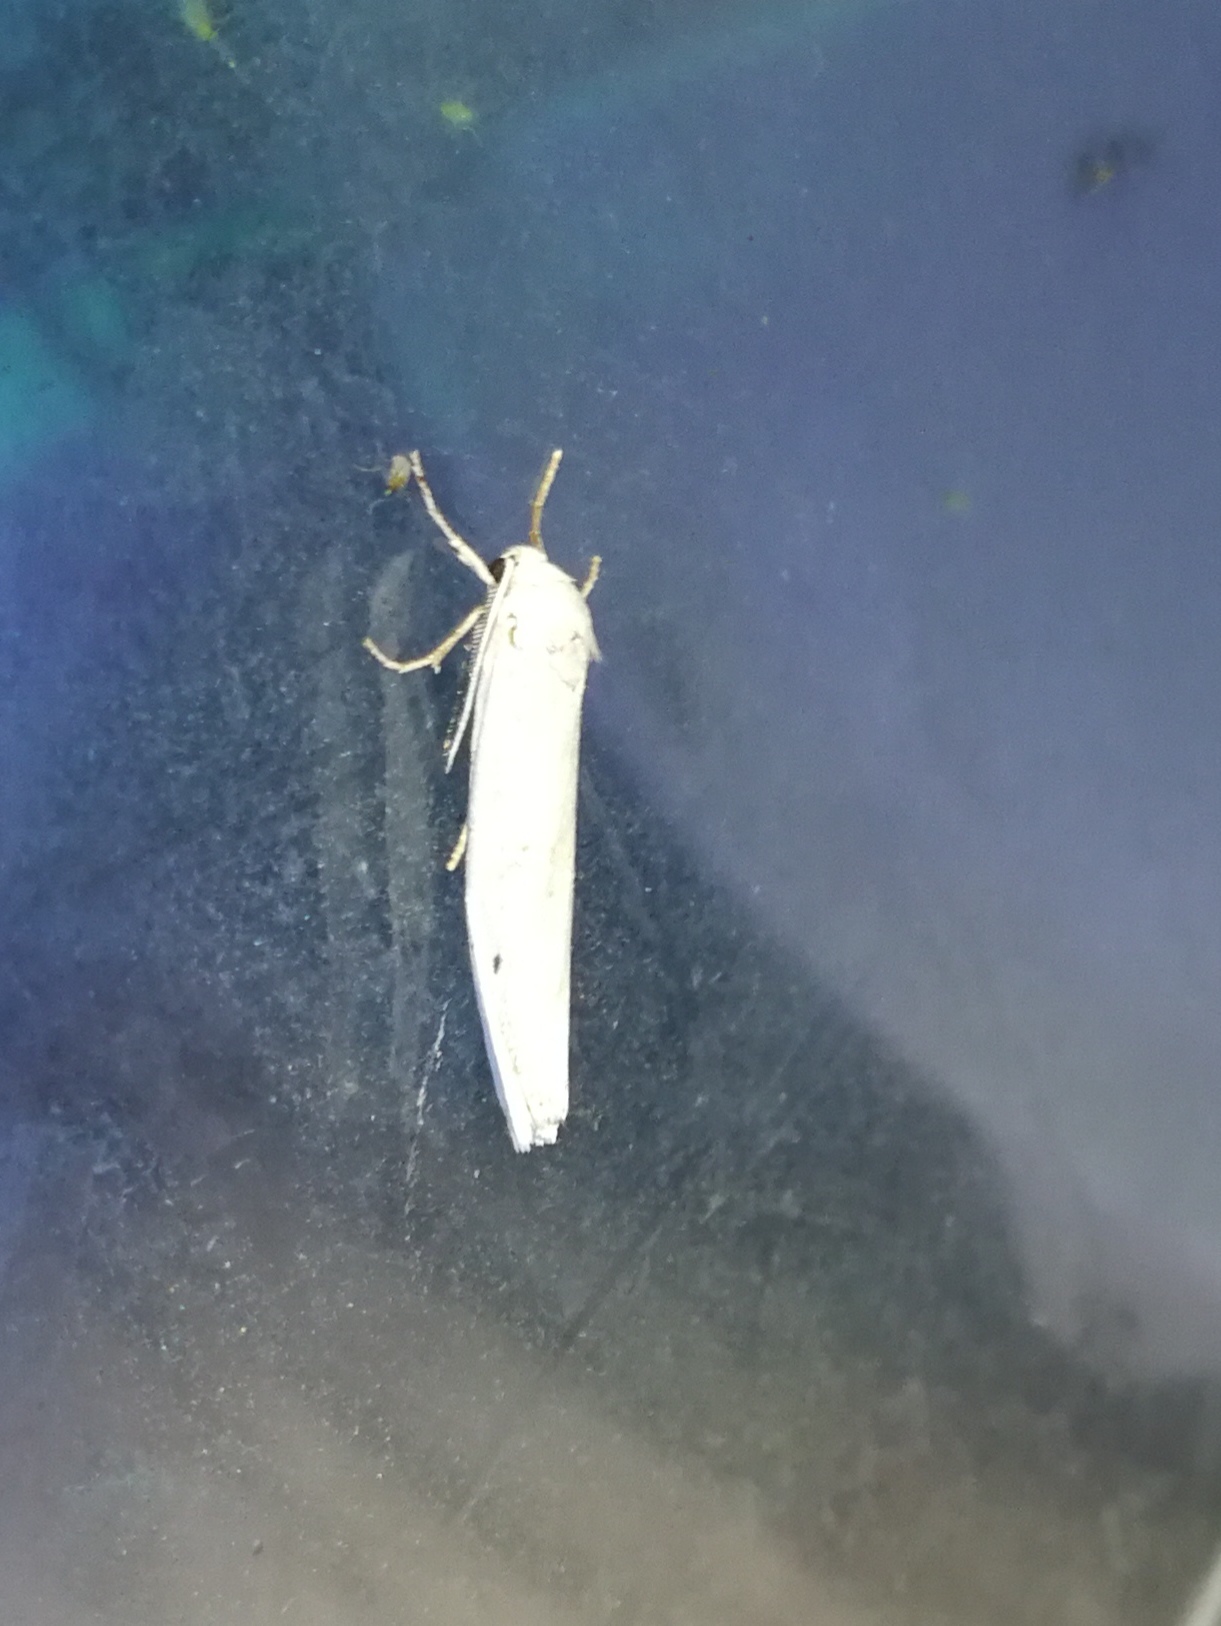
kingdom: Animalia
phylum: Arthropoda
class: Insecta
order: Lepidoptera
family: Erebidae
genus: Coscinia
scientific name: Coscinia cribraria
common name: Speckled footman
